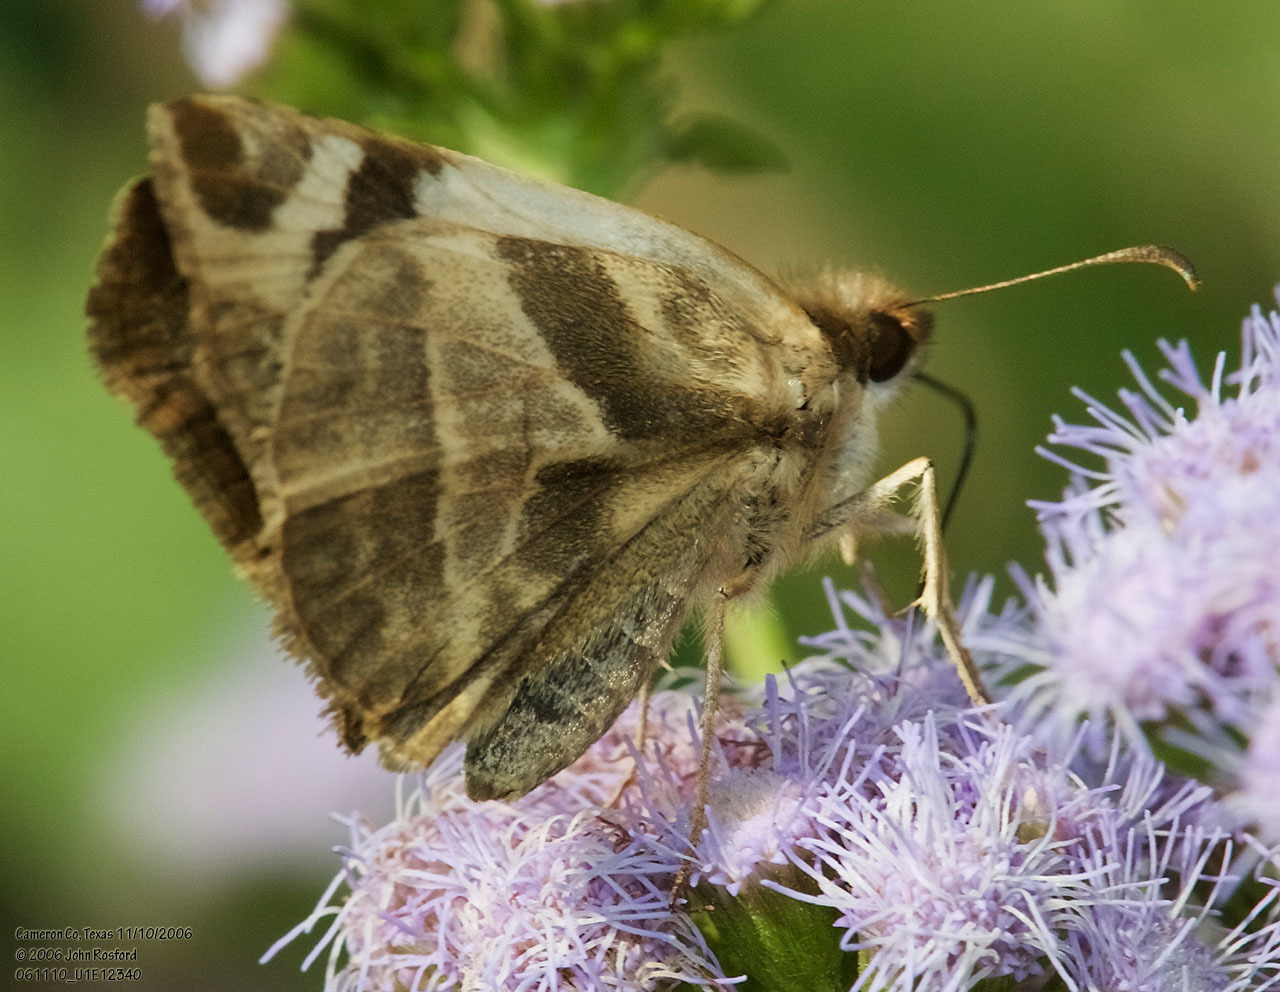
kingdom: Animalia
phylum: Arthropoda
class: Insecta
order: Lepidoptera
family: Hesperiidae
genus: Heliopetes
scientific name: Heliopetes laviana
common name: Laviana white-skipper
